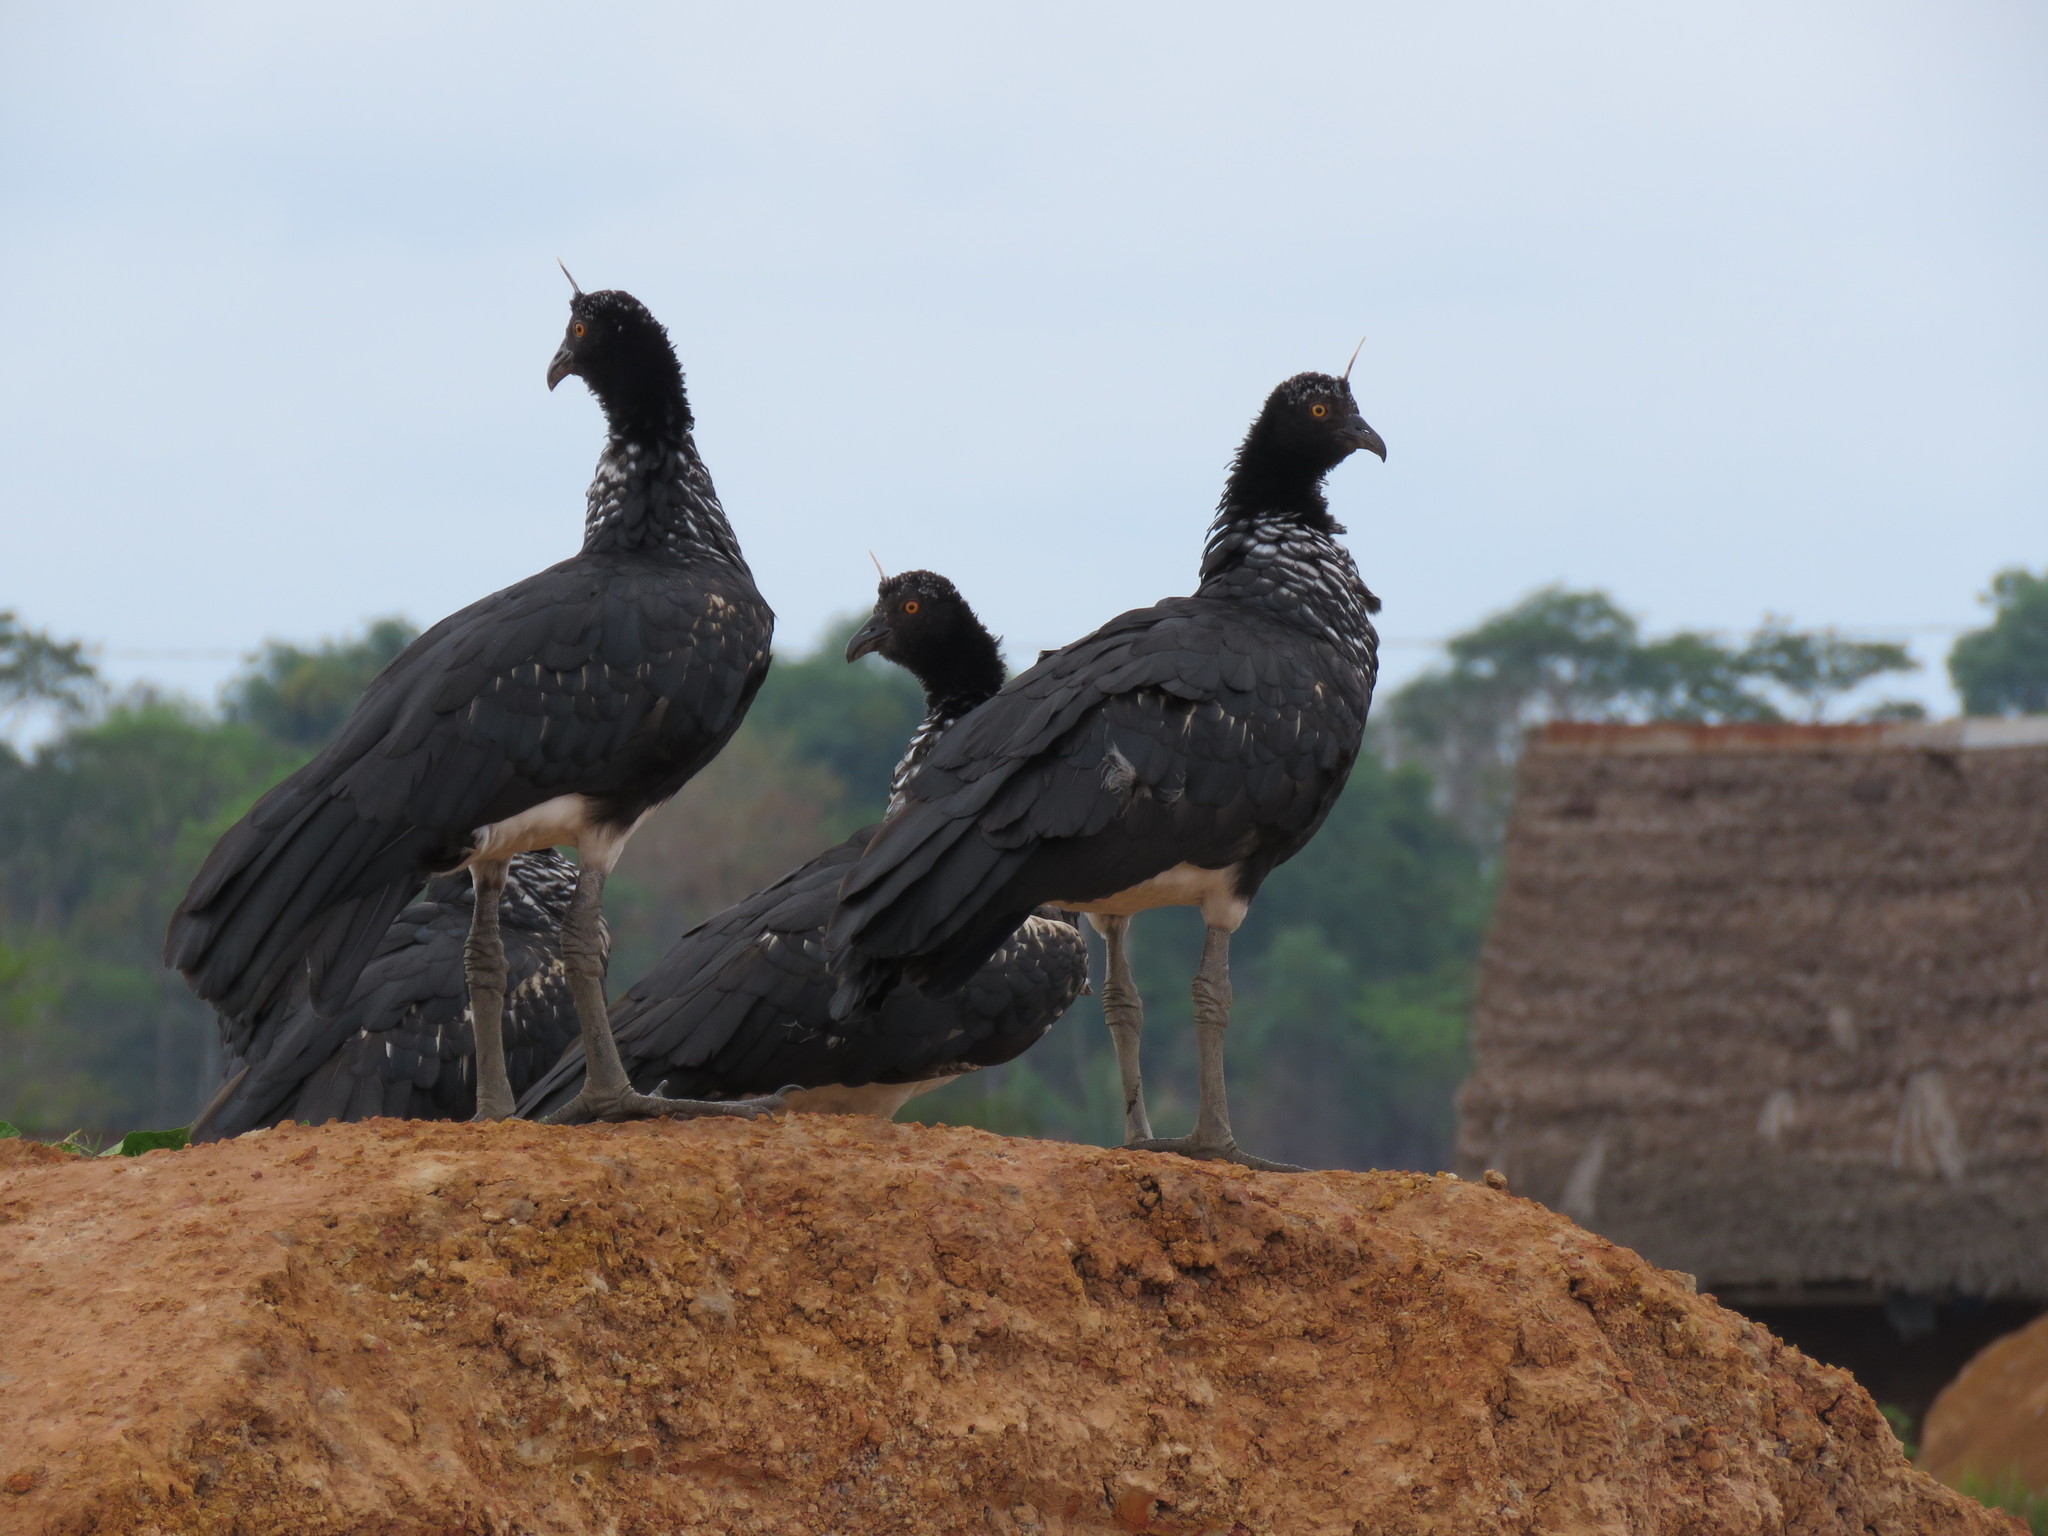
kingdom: Animalia
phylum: Chordata
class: Aves
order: Anseriformes
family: Anhimidae
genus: Anhima
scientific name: Anhima cornuta
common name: Horned screamer
